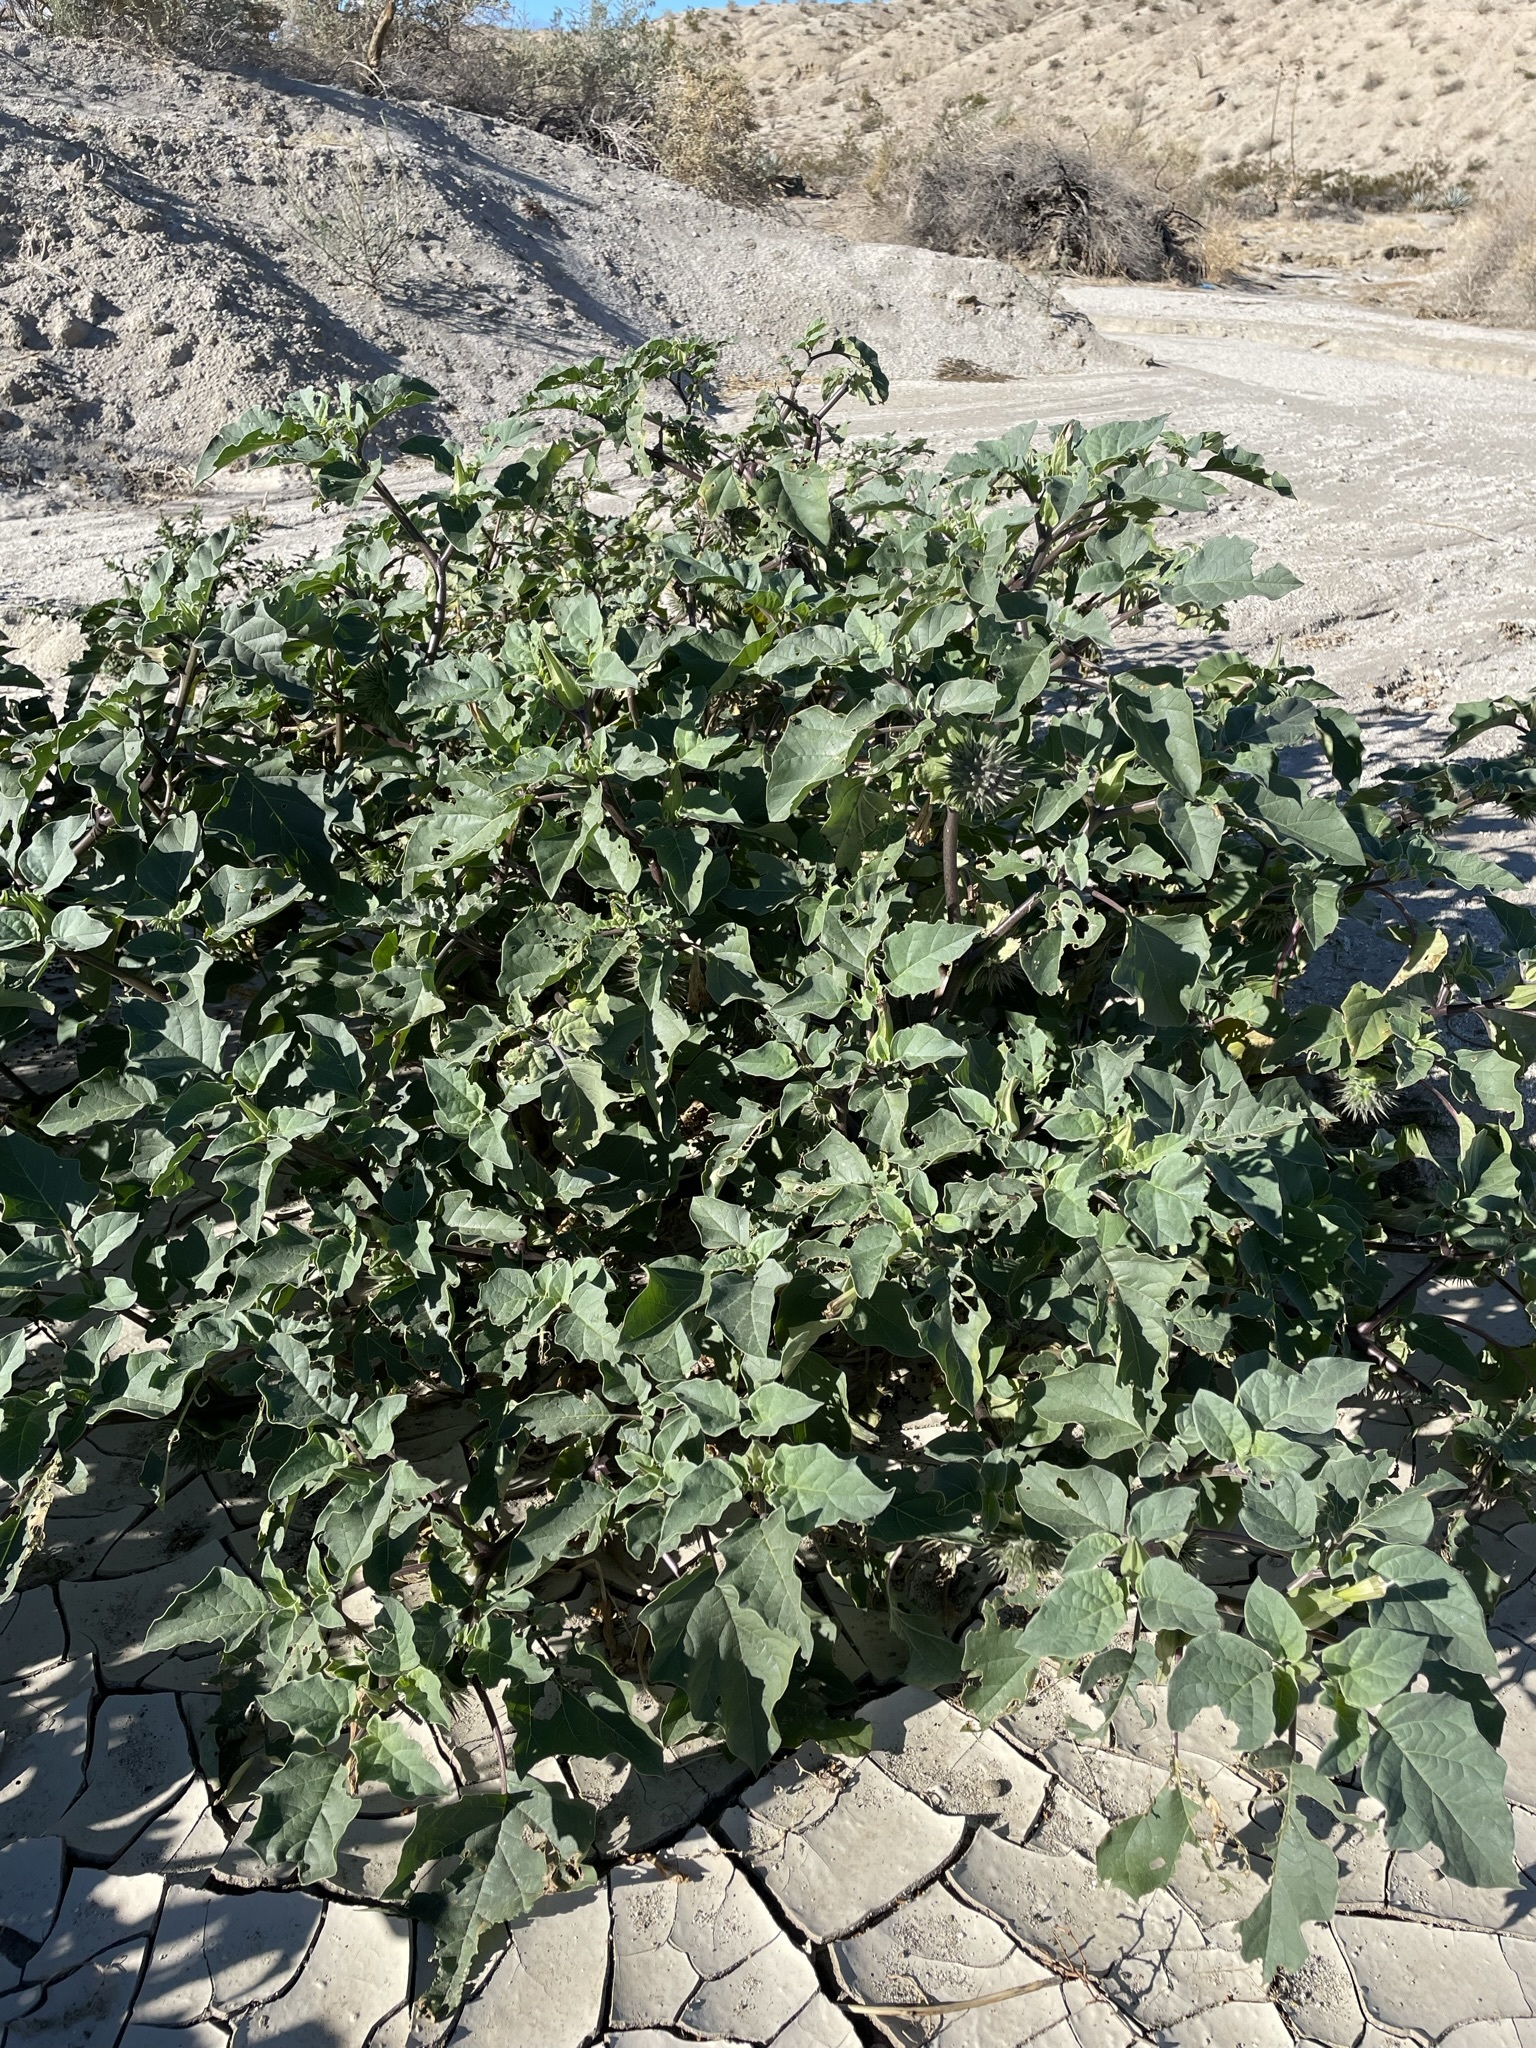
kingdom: Plantae
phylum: Tracheophyta
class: Magnoliopsida
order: Solanales
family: Solanaceae
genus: Datura
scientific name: Datura discolor
